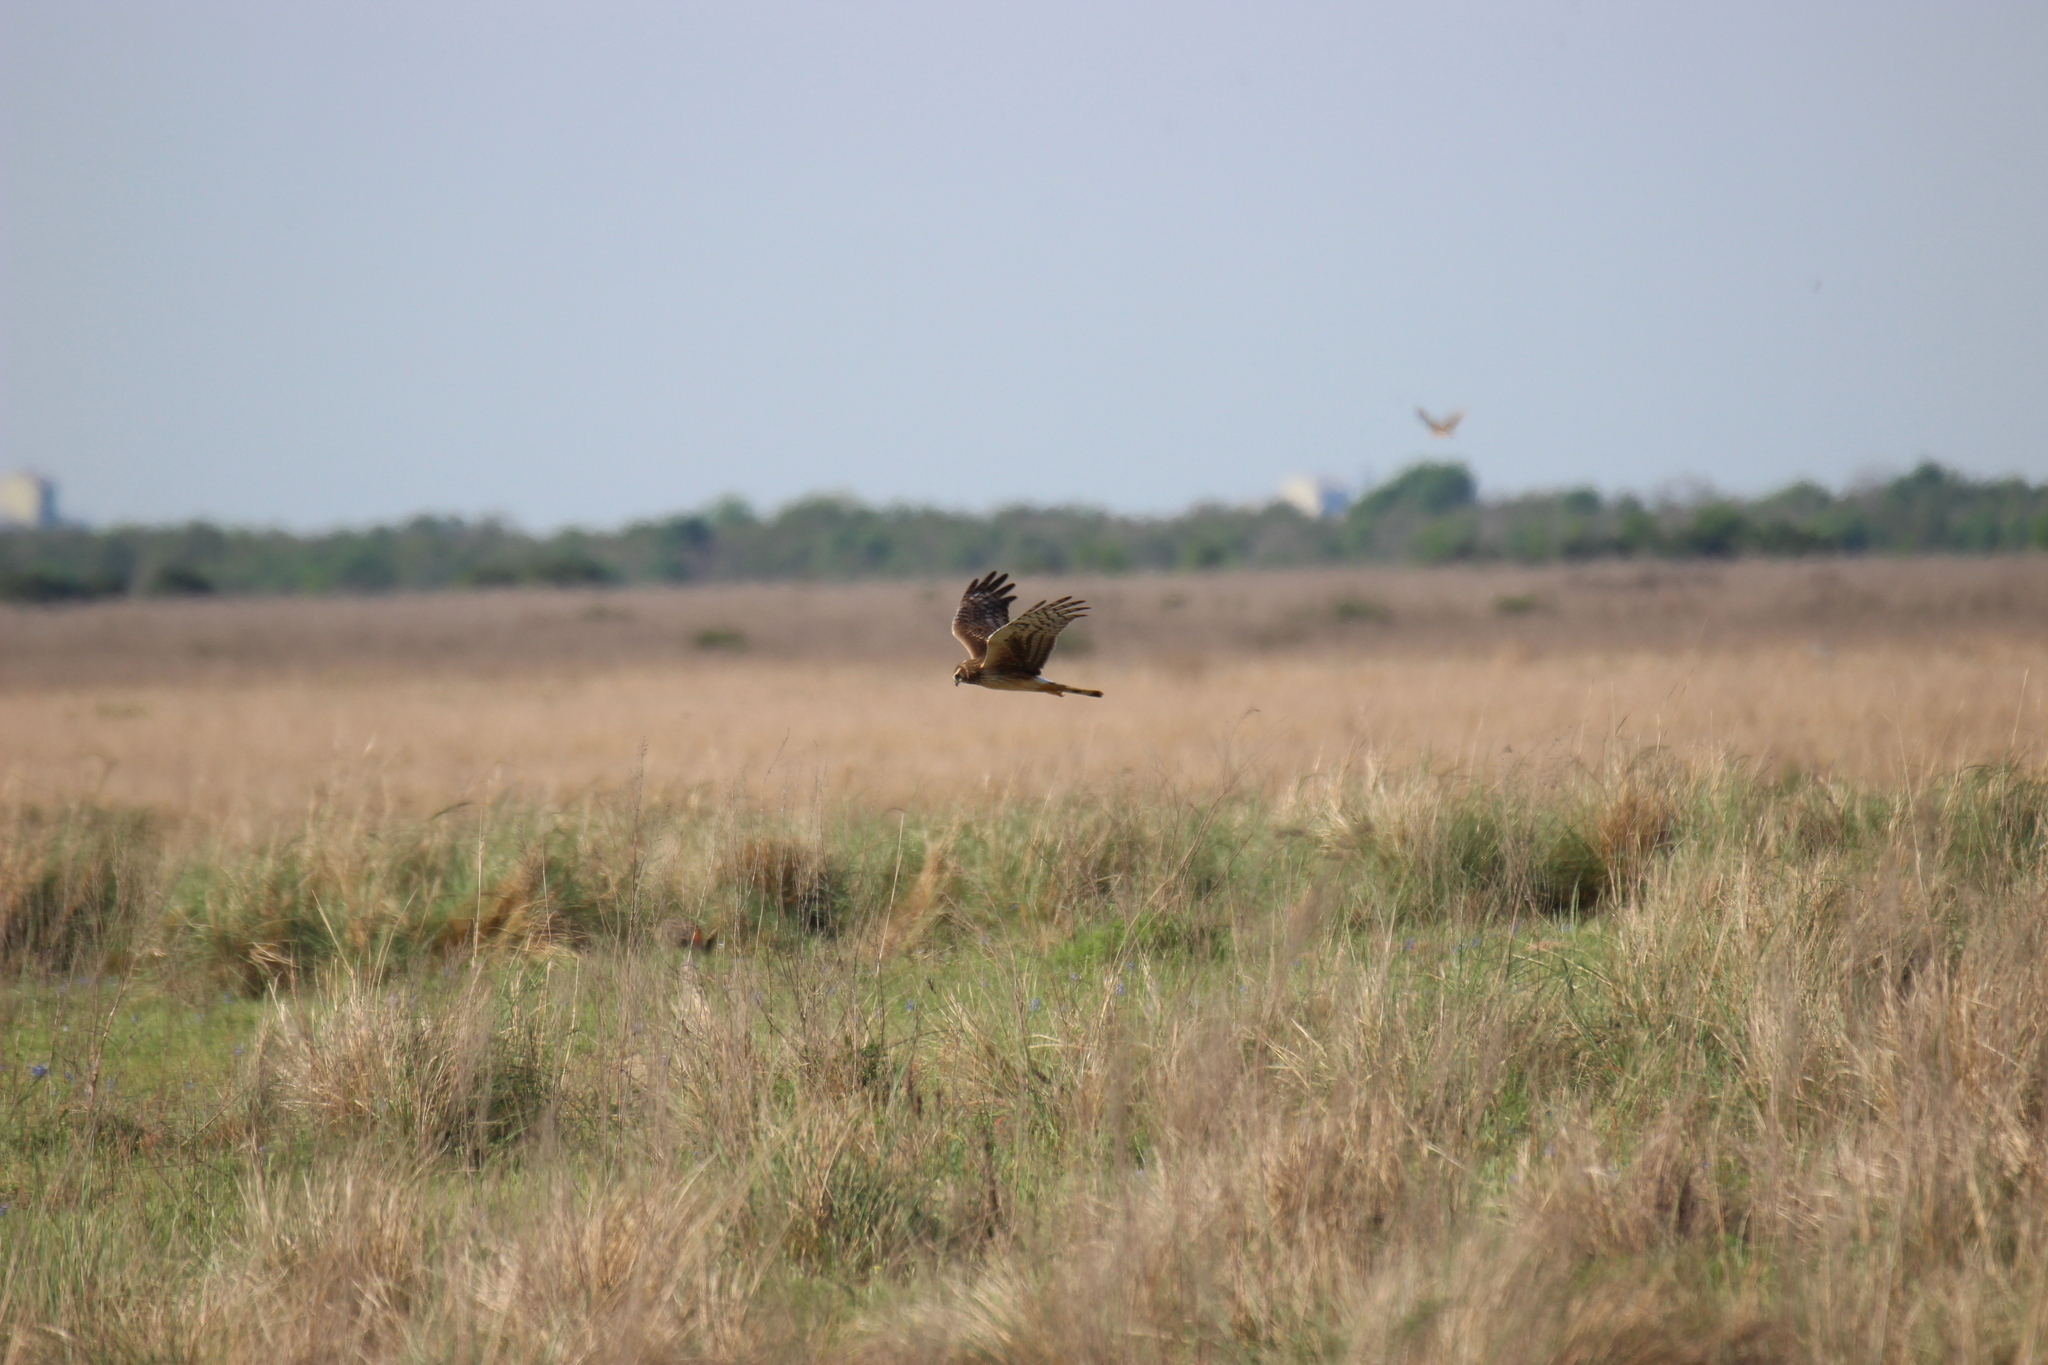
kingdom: Animalia
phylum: Chordata
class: Aves
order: Accipitriformes
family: Accipitridae
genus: Circus
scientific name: Circus cyaneus
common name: Hen harrier
